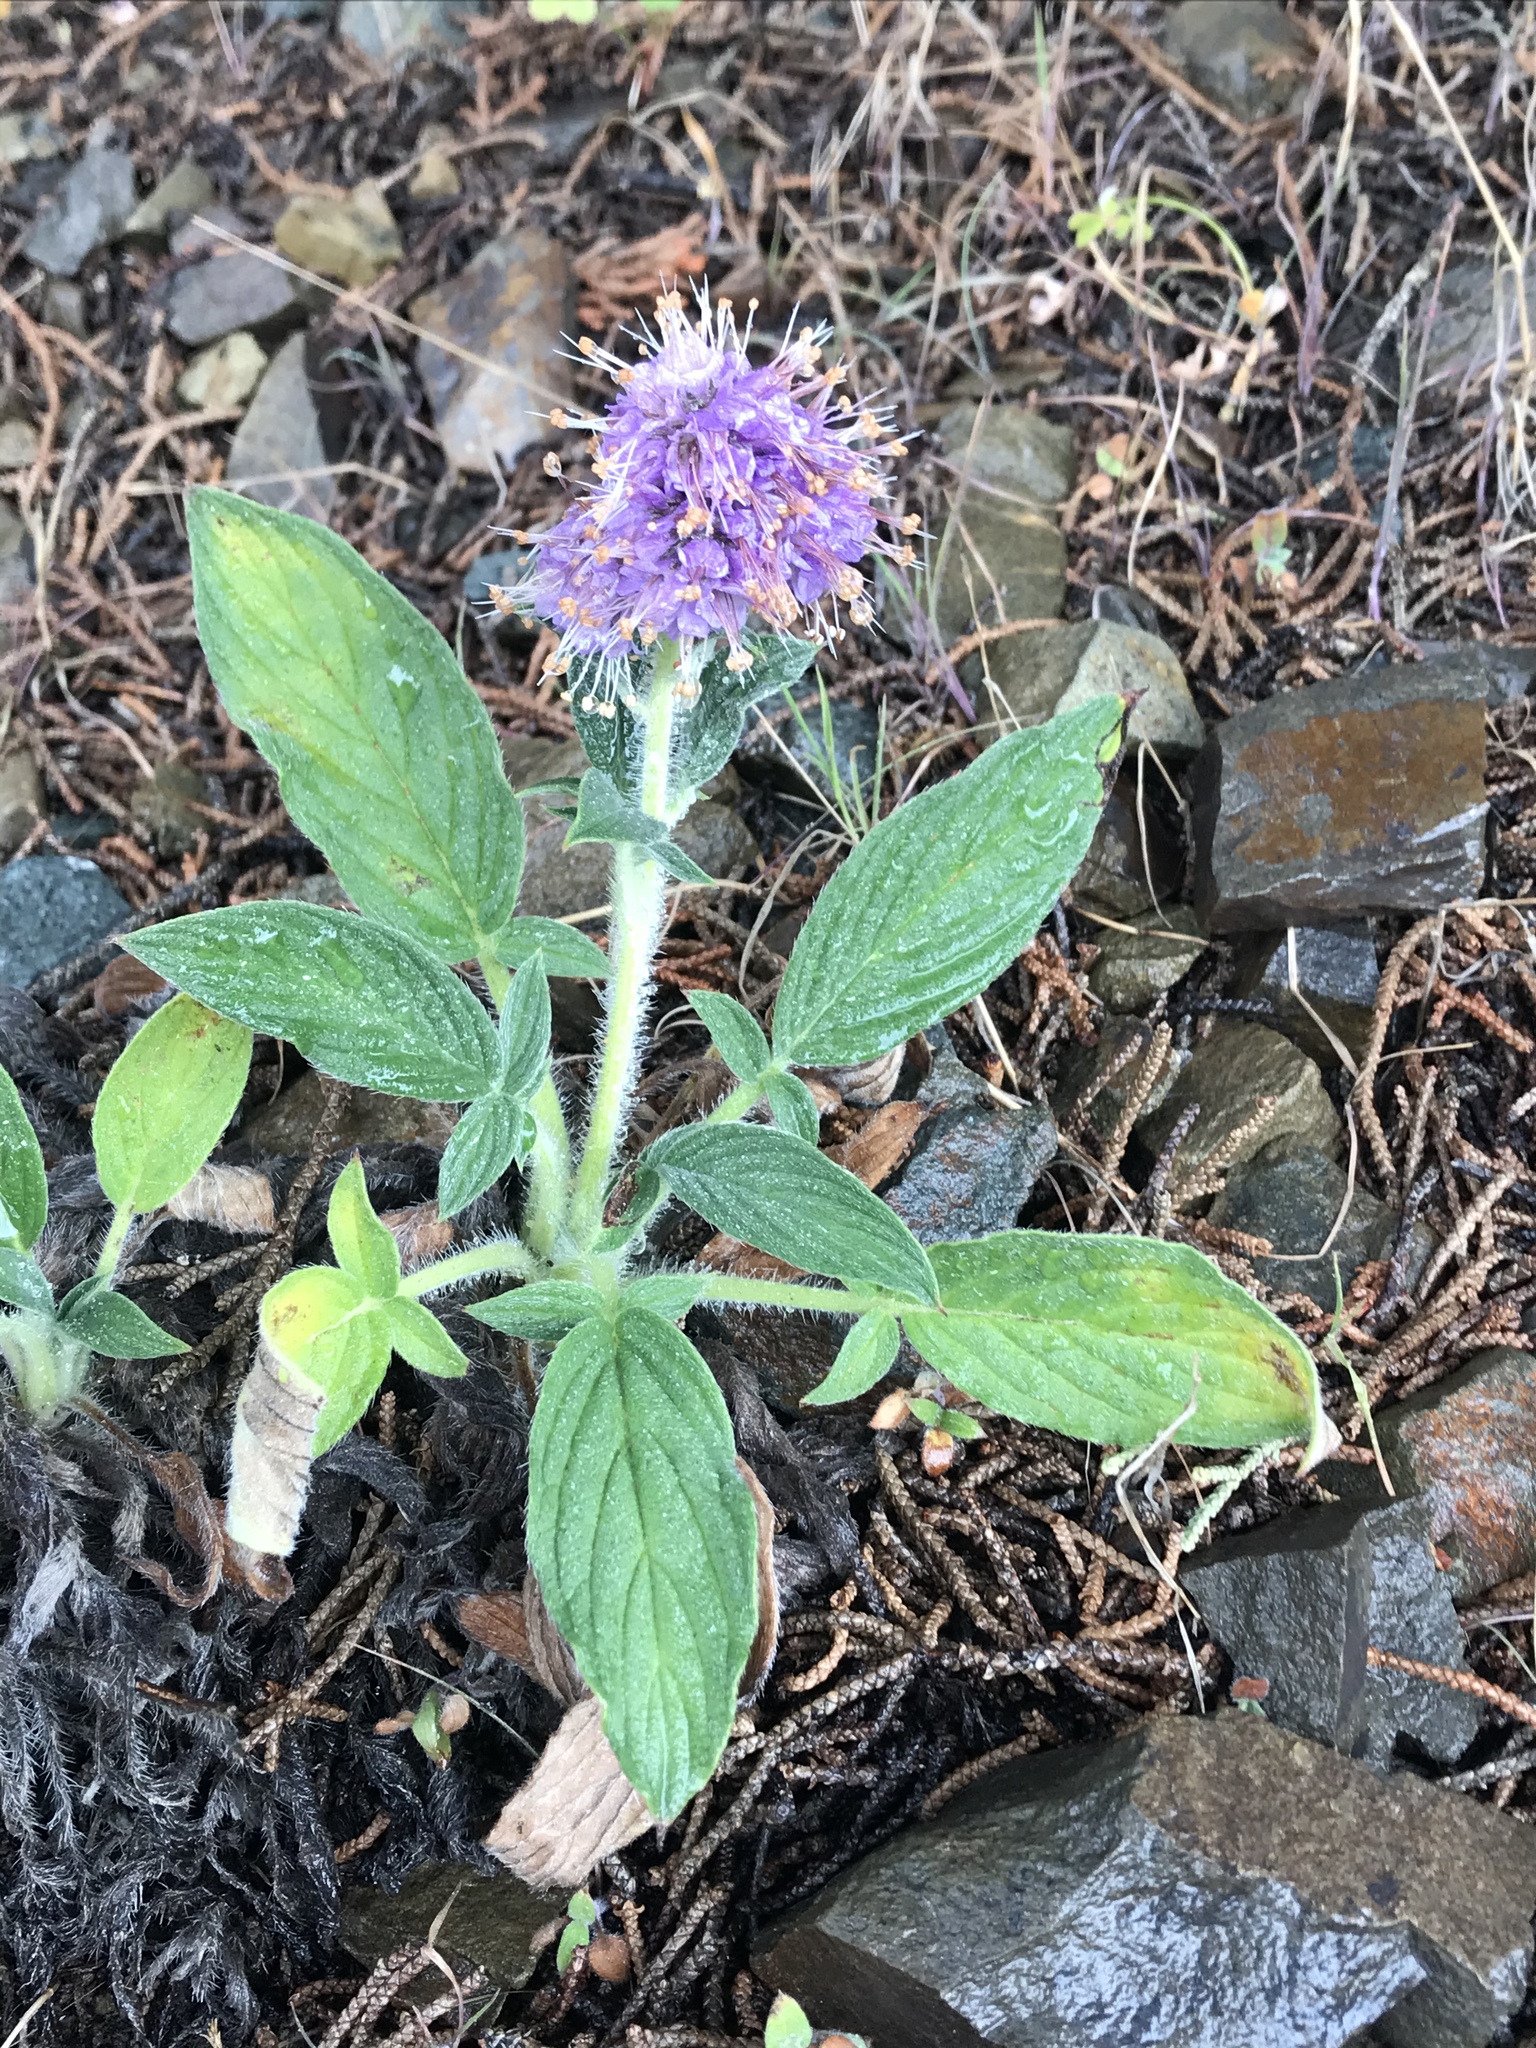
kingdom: Plantae
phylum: Tracheophyta
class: Magnoliopsida
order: Boraginales
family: Hydrophyllaceae
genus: Phacelia
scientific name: Phacelia californica
